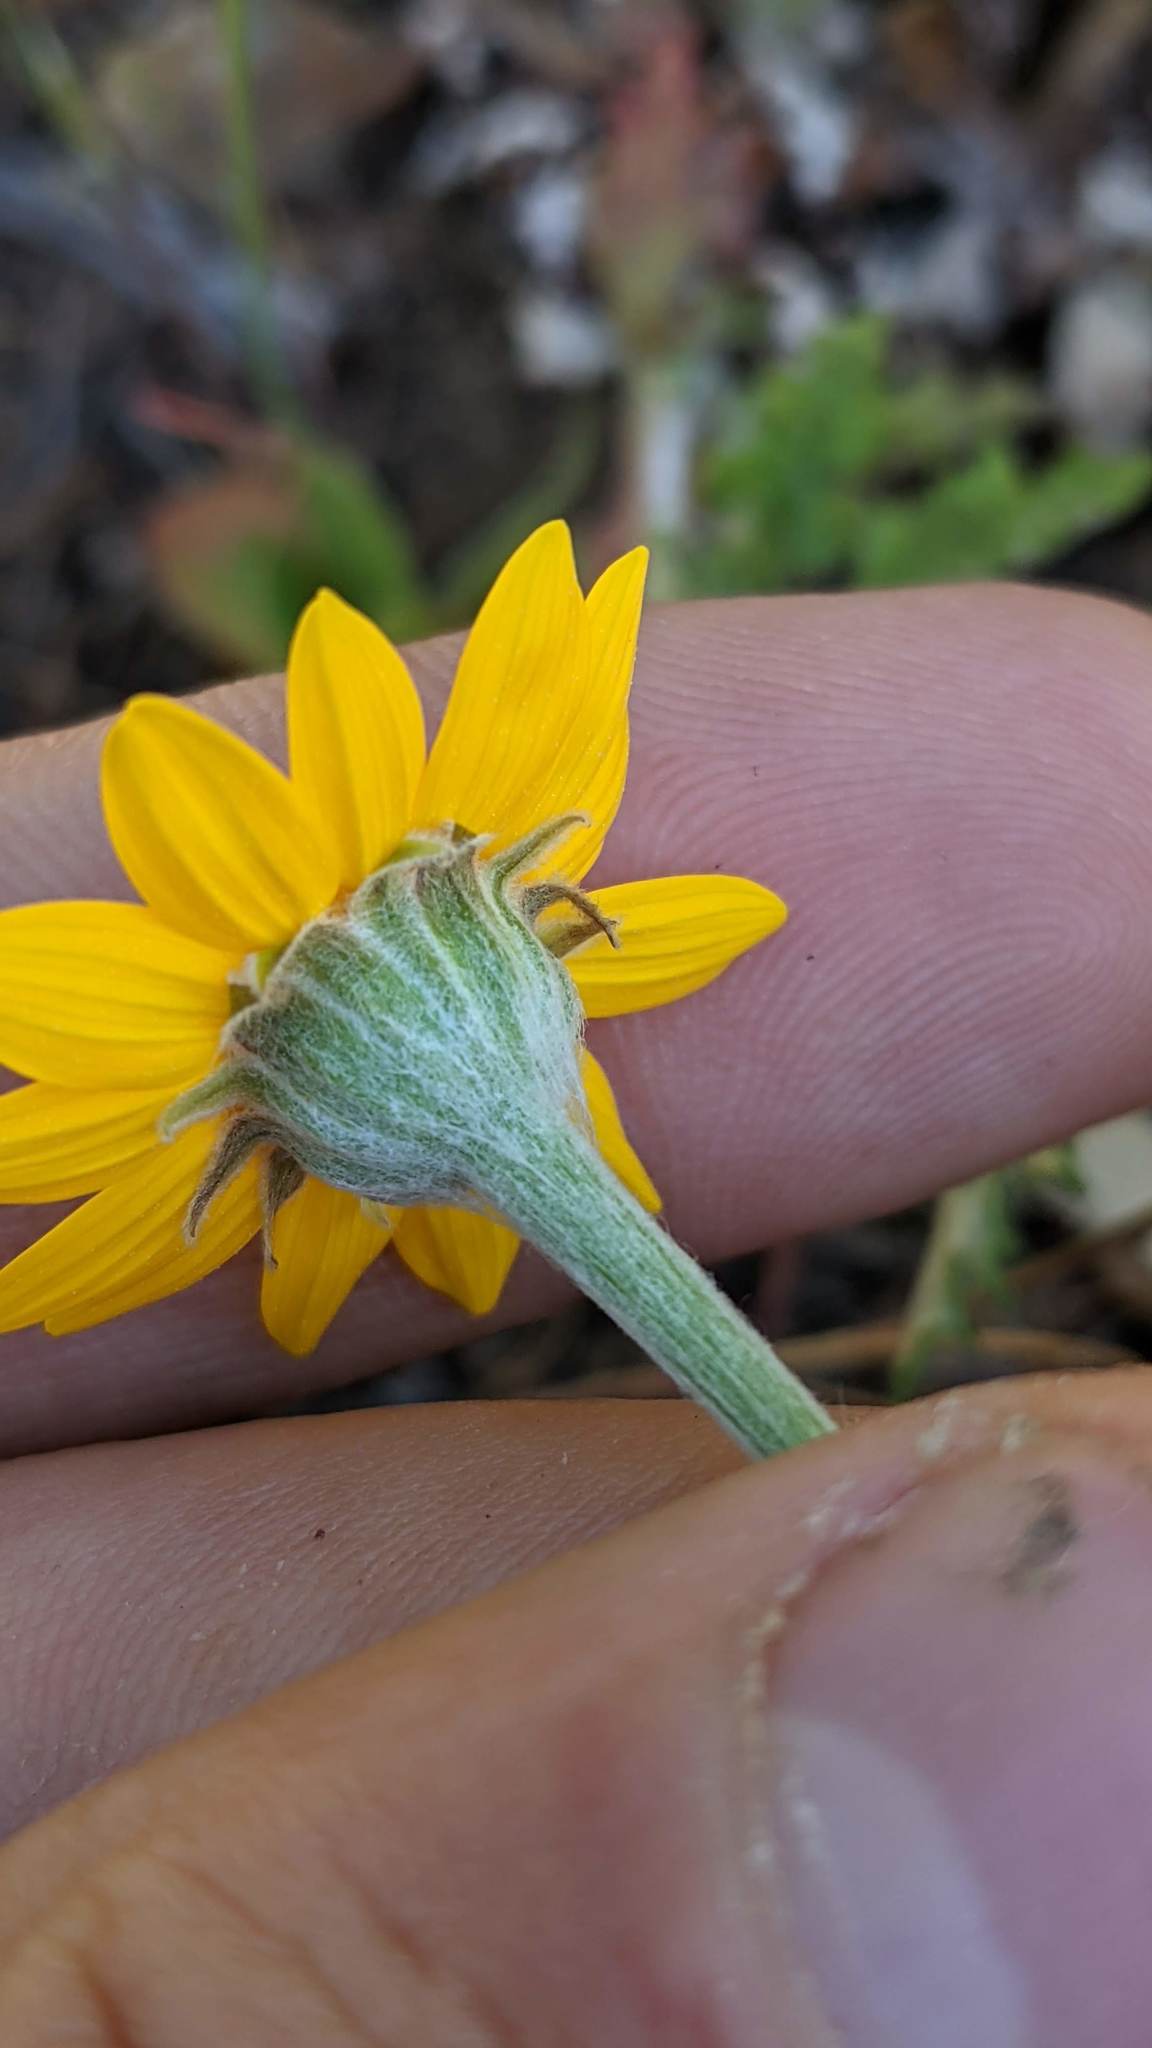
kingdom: Plantae
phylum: Tracheophyta
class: Magnoliopsida
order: Asterales
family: Asteraceae
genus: Eriophyllum
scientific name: Eriophyllum lanatum
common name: Common woolly-sunflower
